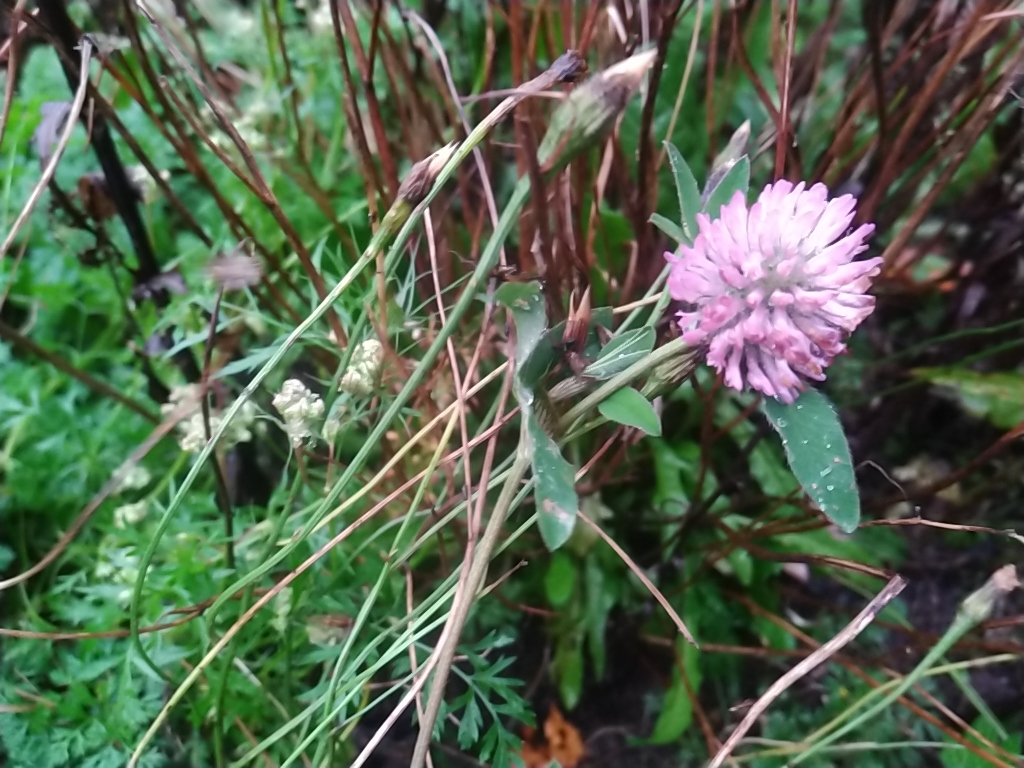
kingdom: Plantae
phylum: Tracheophyta
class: Magnoliopsida
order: Fabales
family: Fabaceae
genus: Trifolium
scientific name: Trifolium pratense
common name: Red clover
